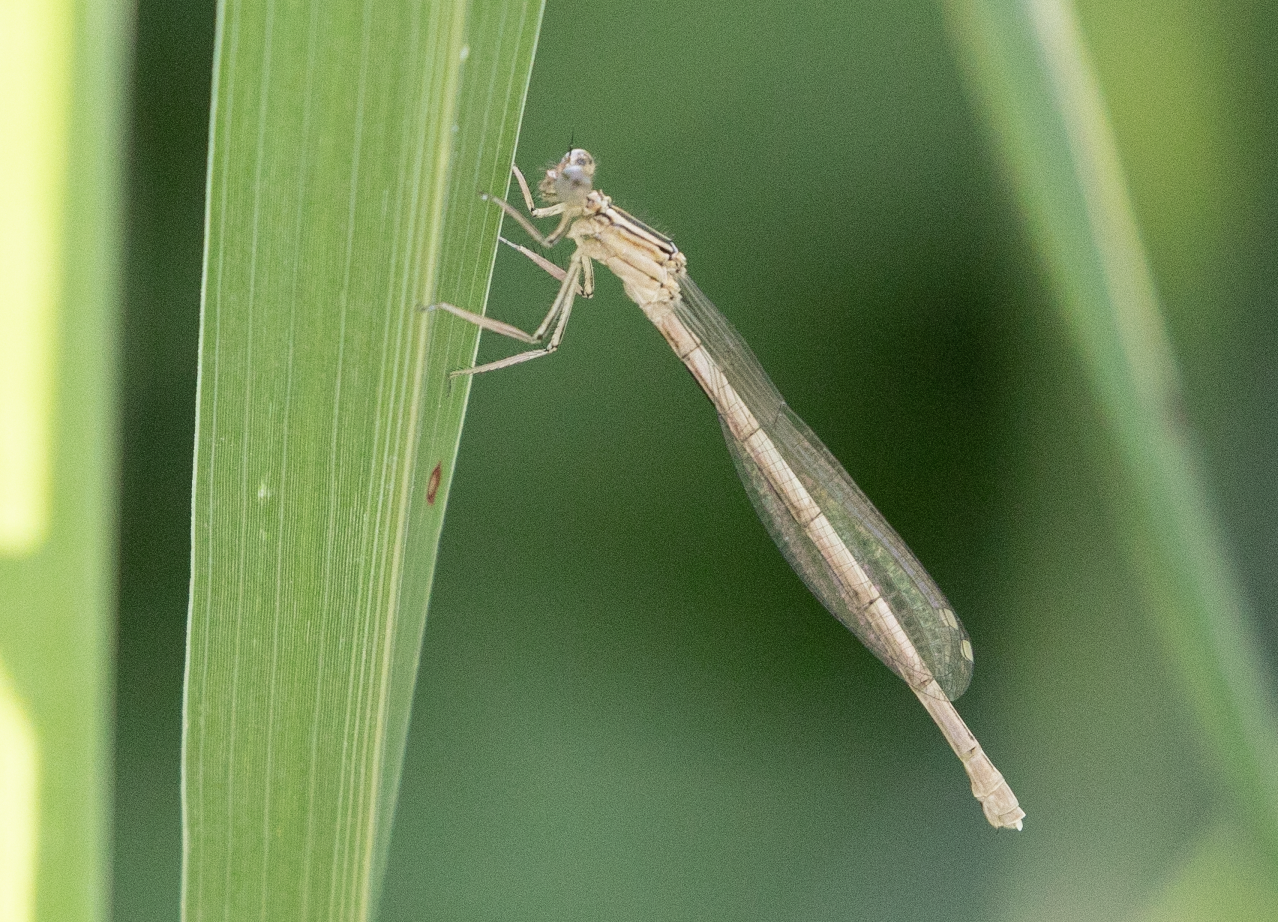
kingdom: Animalia
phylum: Arthropoda
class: Insecta
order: Odonata
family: Platycnemididae
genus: Platycnemis
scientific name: Platycnemis pennipes
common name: White-legged damselfly
